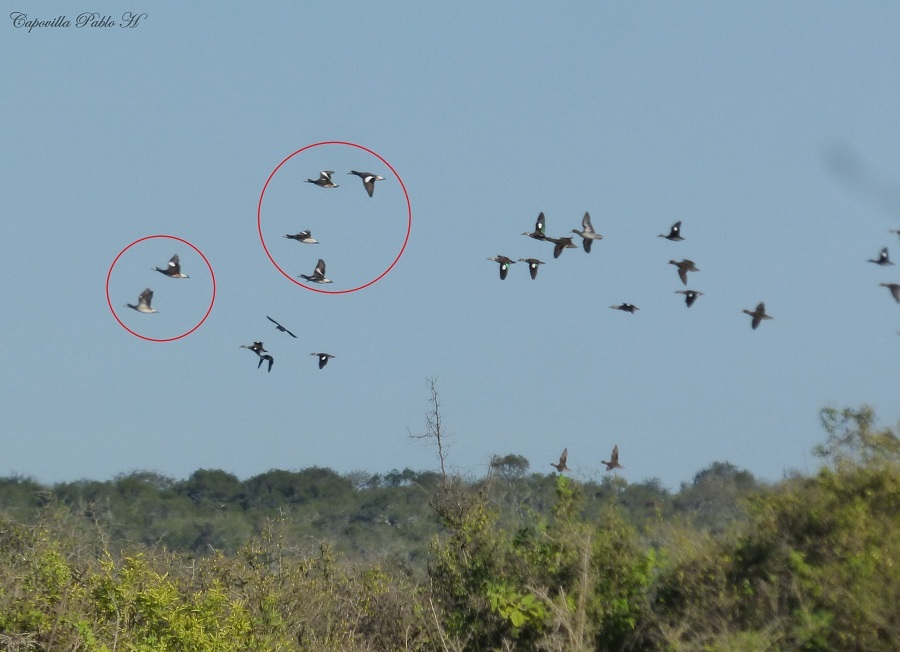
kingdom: Animalia
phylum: Chordata
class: Aves
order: Anseriformes
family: Anatidae
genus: Mareca
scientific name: Mareca sibilatrix
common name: Chiloe wigeon
